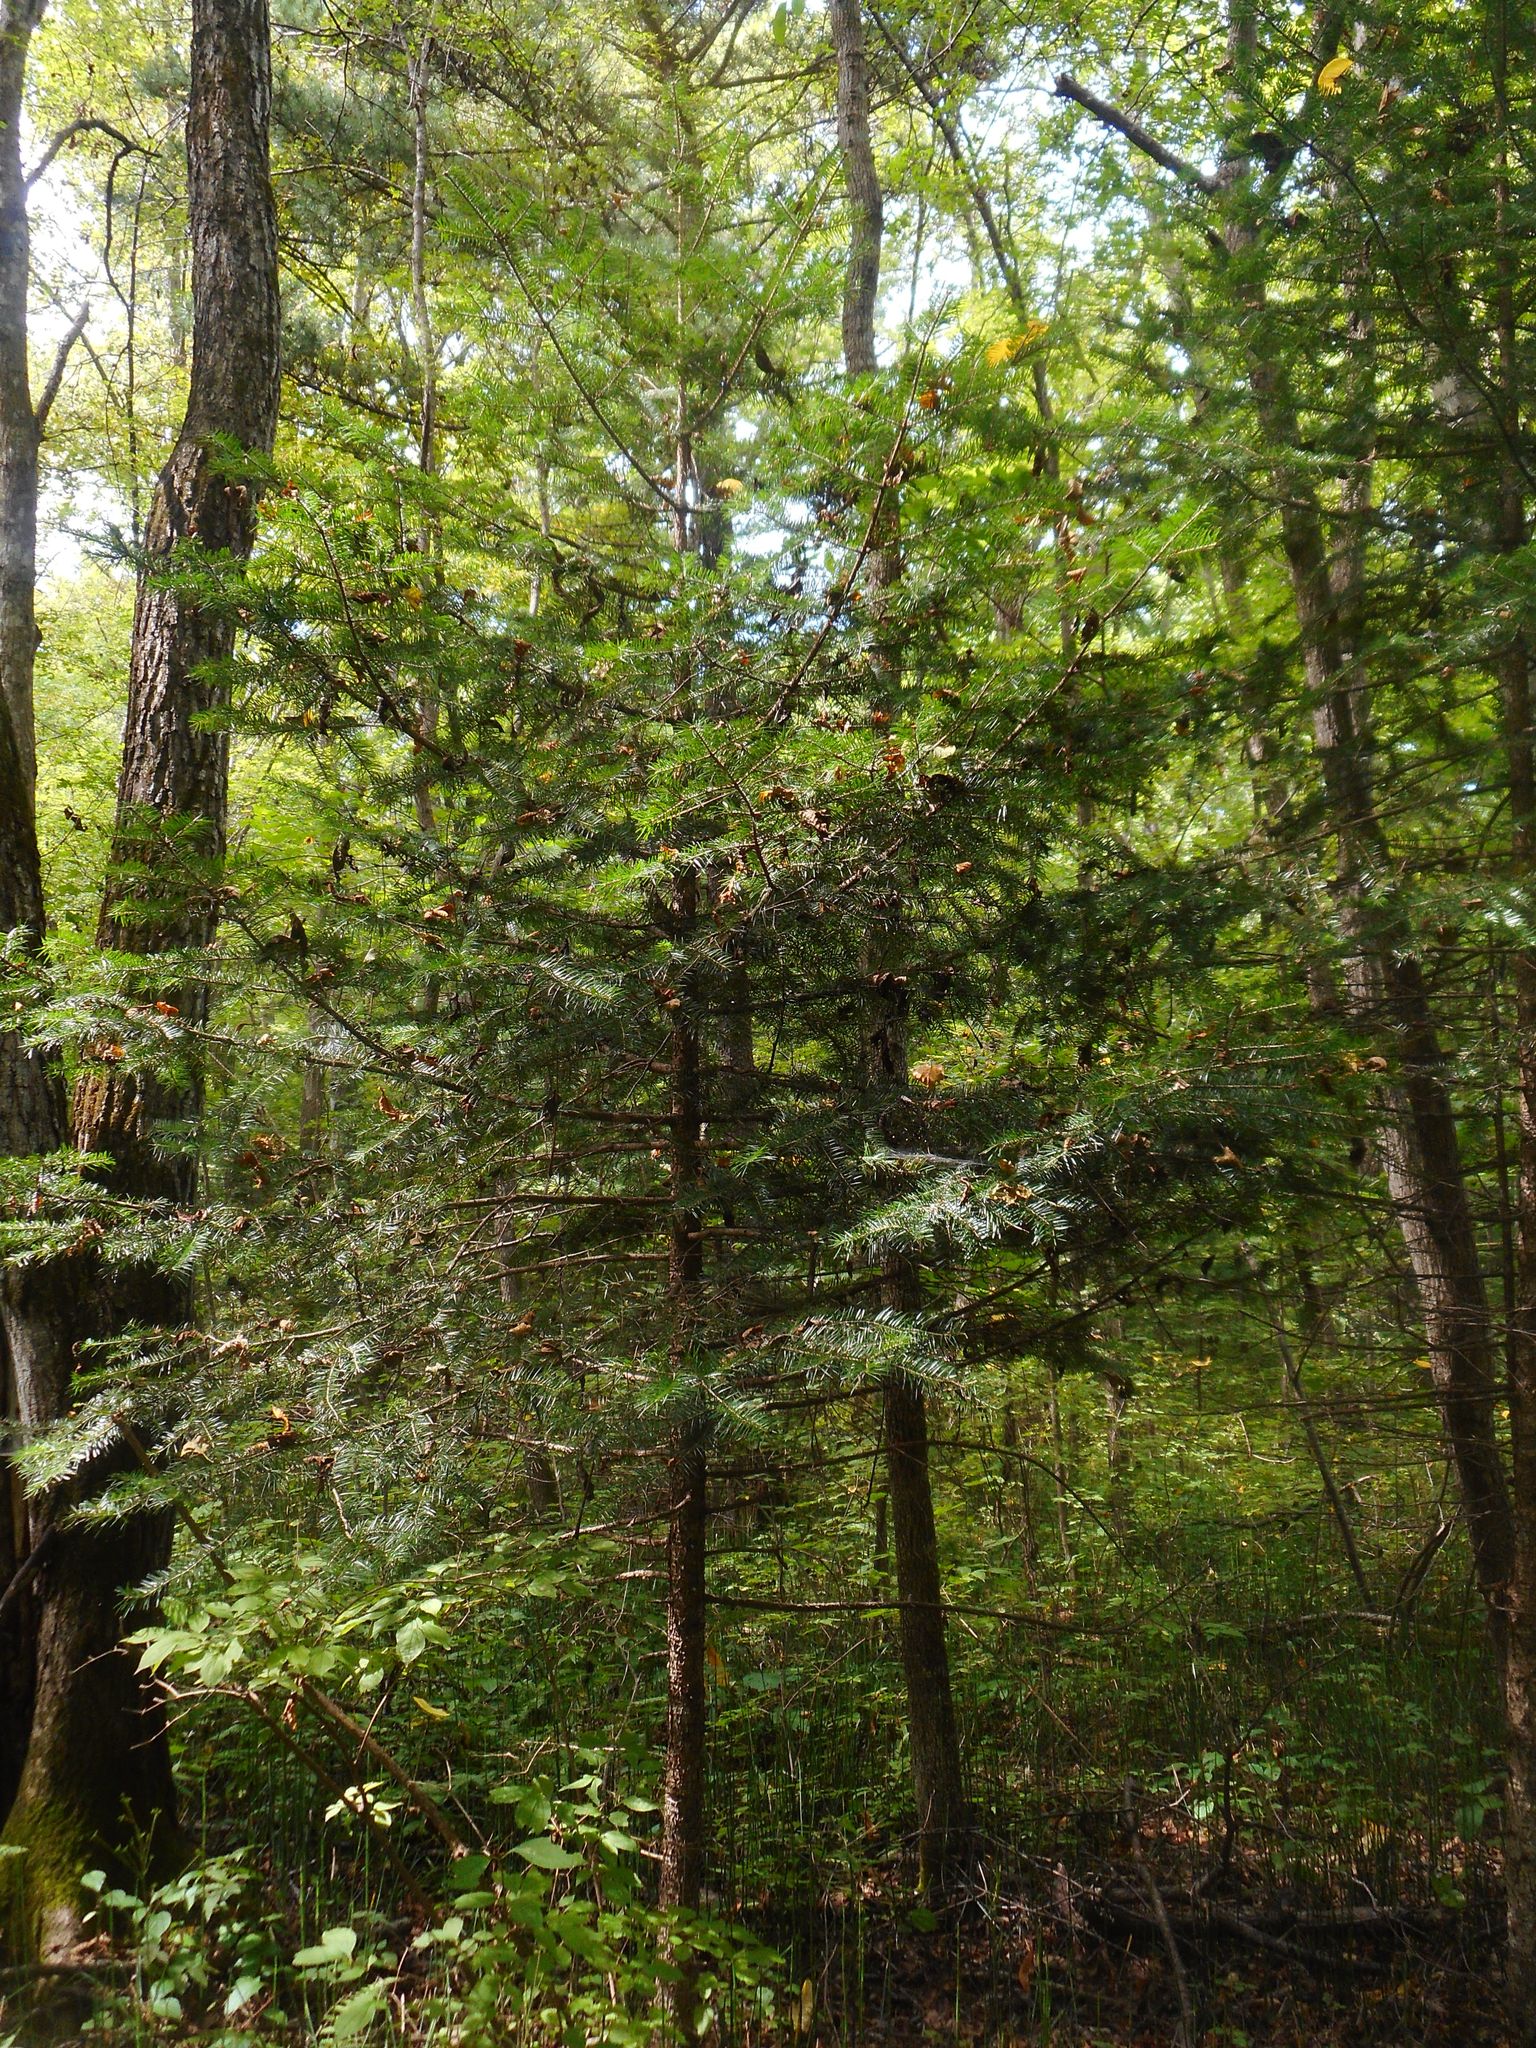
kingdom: Plantae
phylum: Tracheophyta
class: Pinopsida
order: Pinales
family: Pinaceae
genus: Abies
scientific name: Abies holophylla
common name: Manchurian fir
